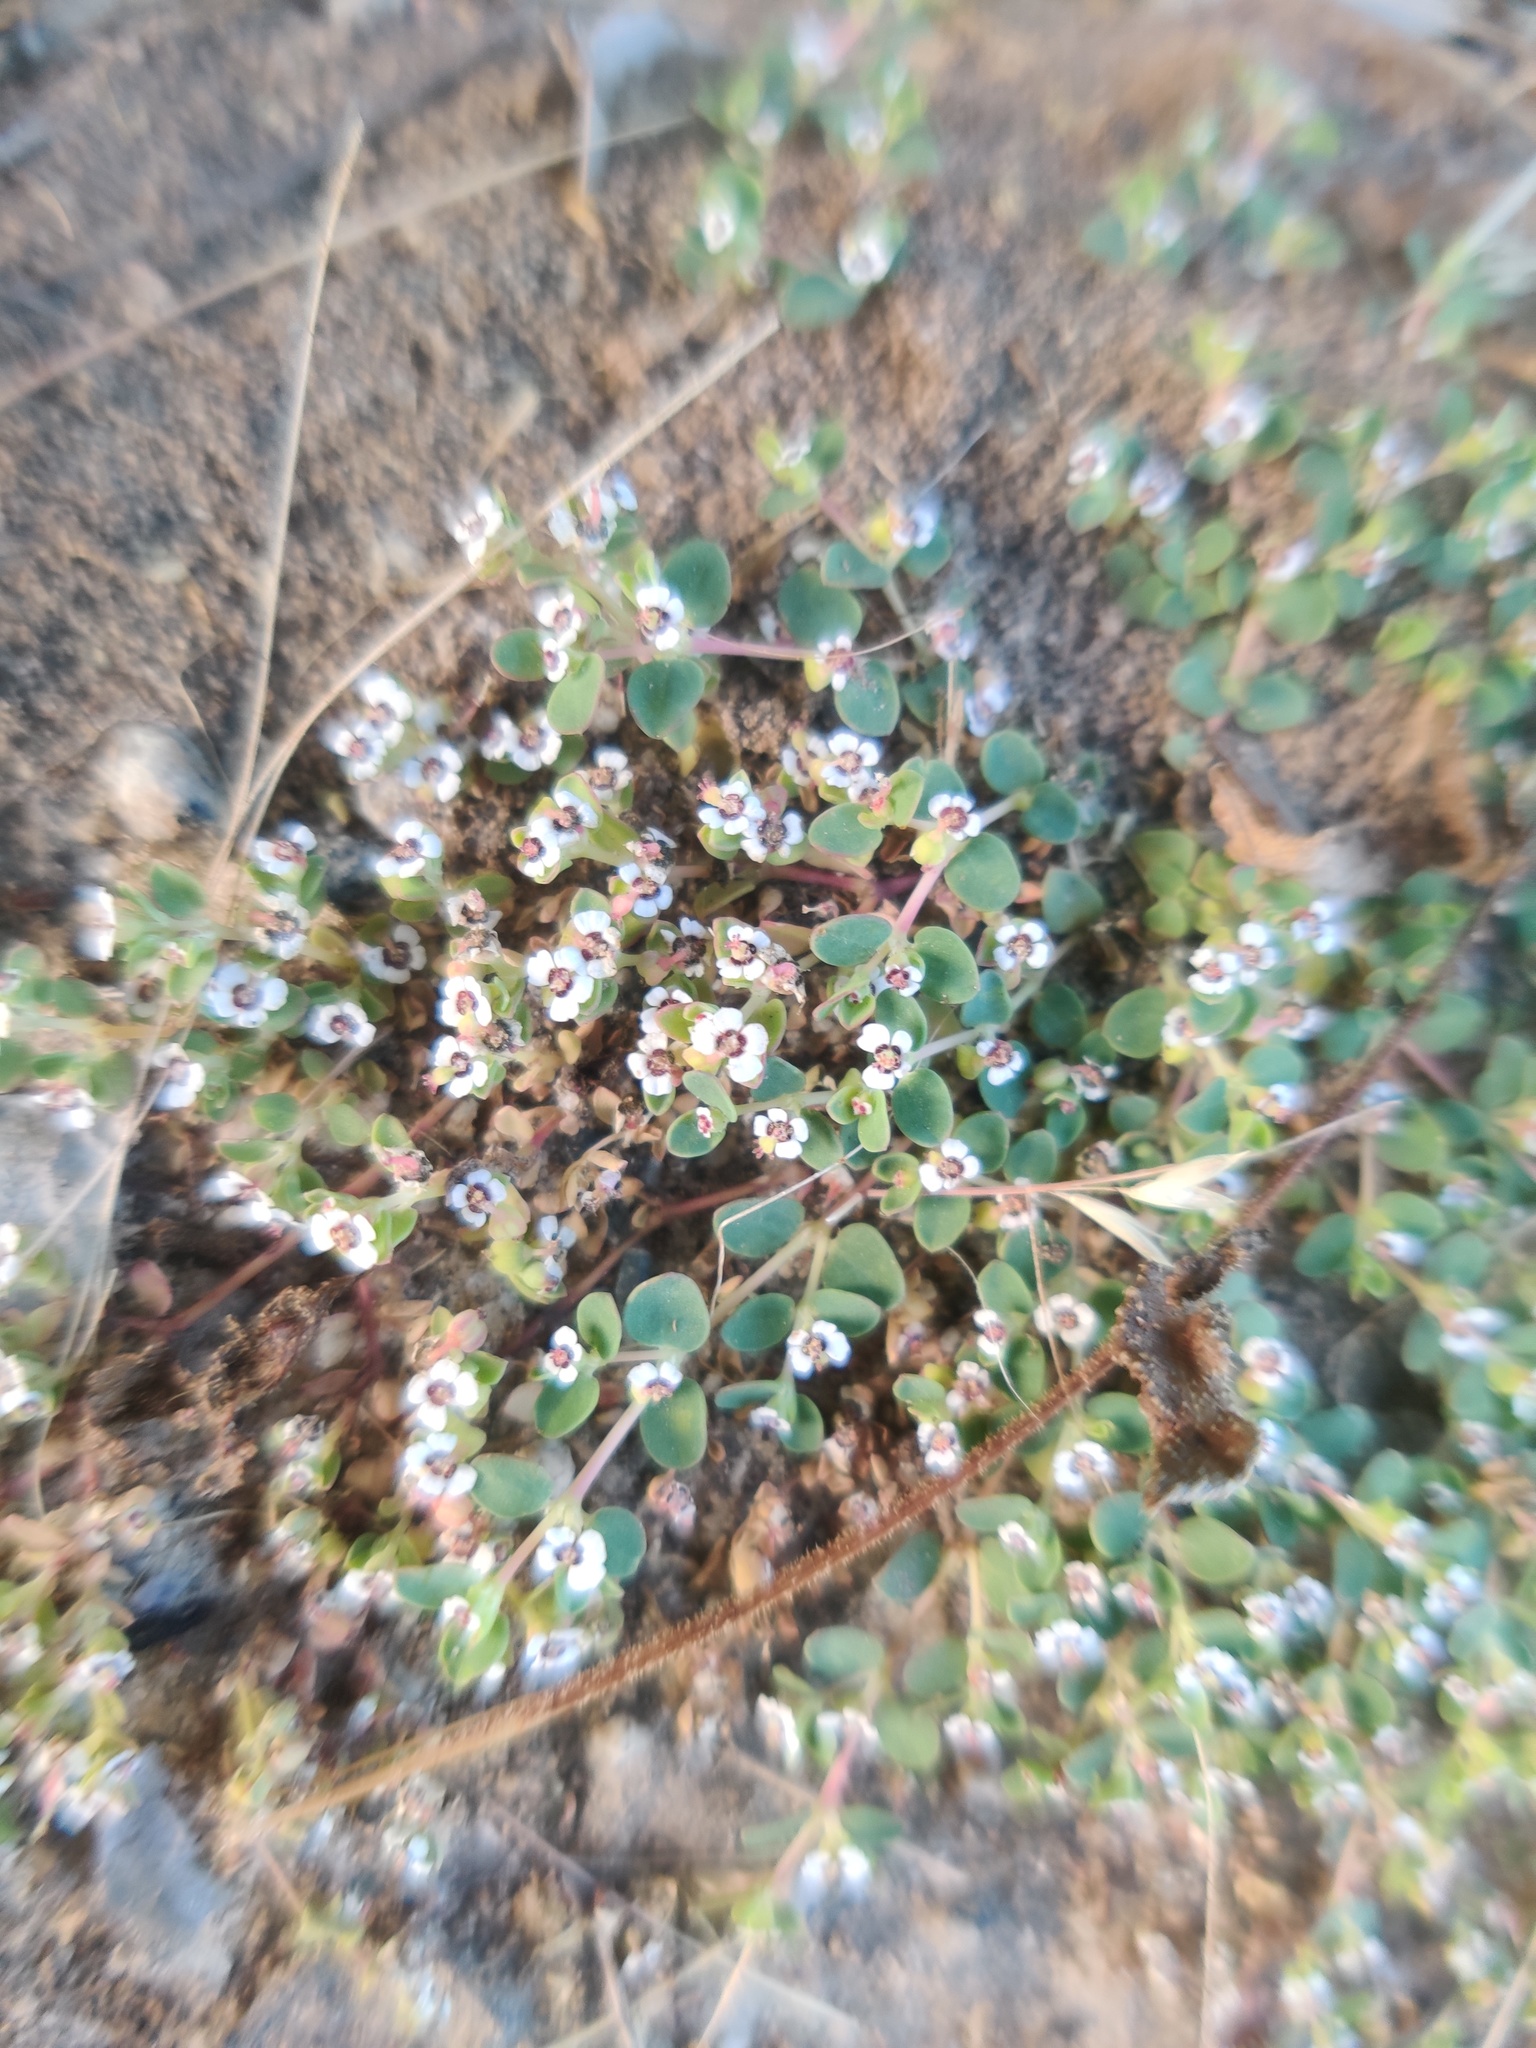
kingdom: Plantae
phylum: Tracheophyta
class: Magnoliopsida
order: Malpighiales
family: Euphorbiaceae
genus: Euphorbia
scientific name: Euphorbia polycarpa
